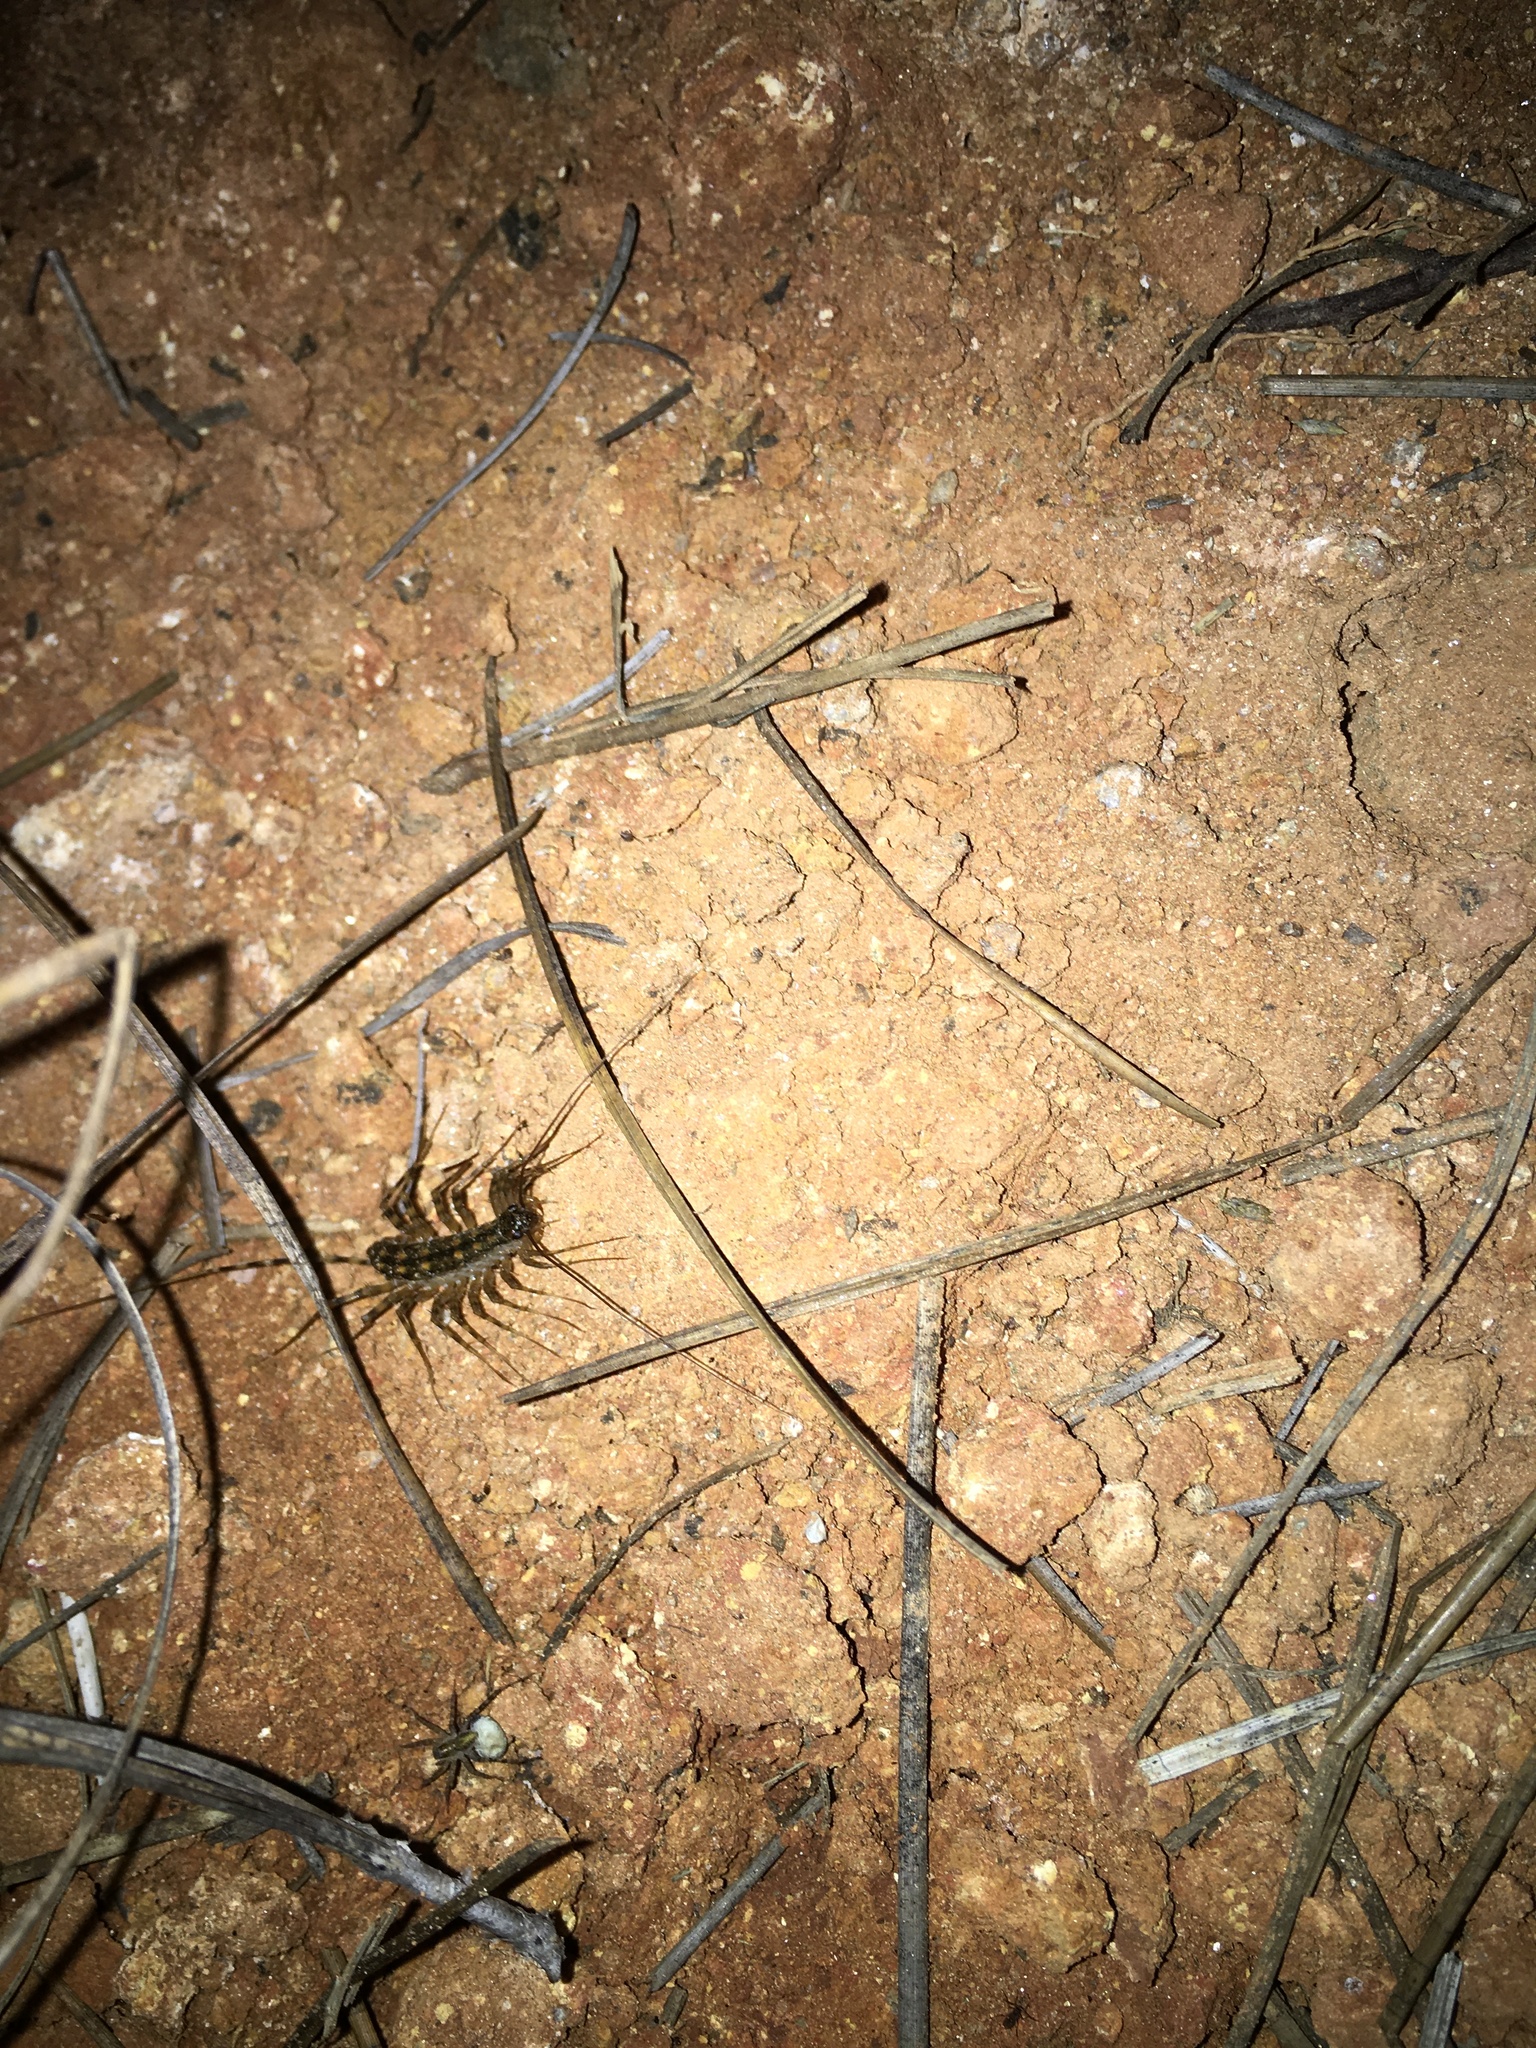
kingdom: Animalia
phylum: Arthropoda
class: Chilopoda
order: Scutigeromorpha
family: Scutigeridae
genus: Thereuonema
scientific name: Thereuonema tuberculata
